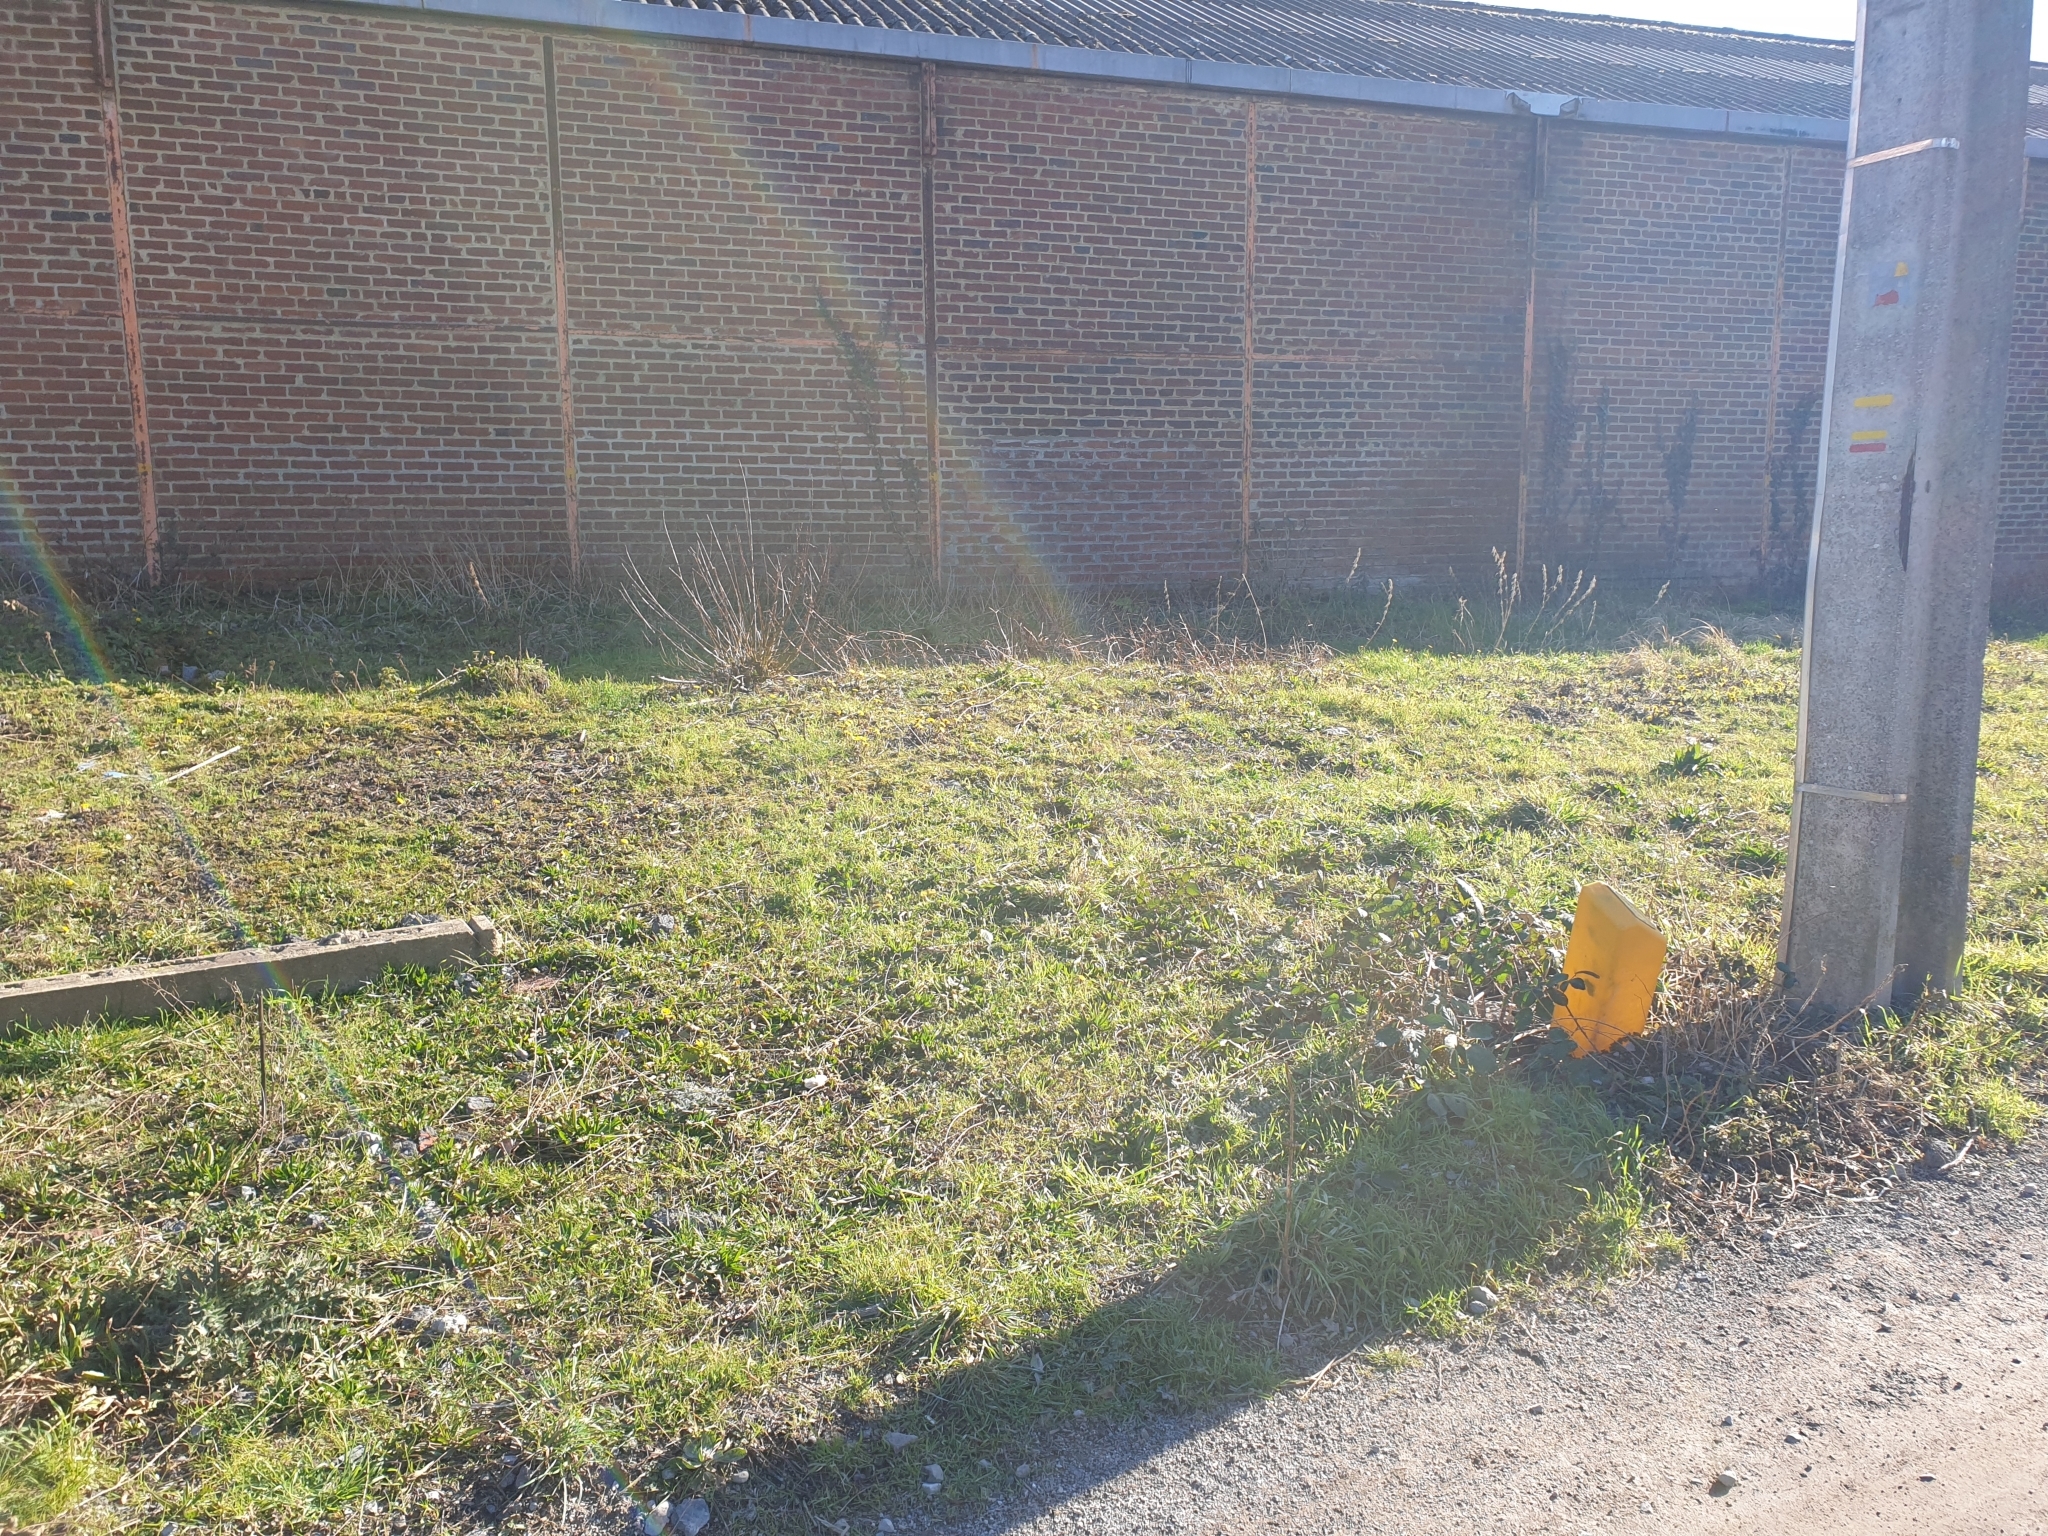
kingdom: Plantae
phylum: Tracheophyta
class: Magnoliopsida
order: Asterales
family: Asteraceae
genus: Tussilago
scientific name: Tussilago farfara
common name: Coltsfoot
